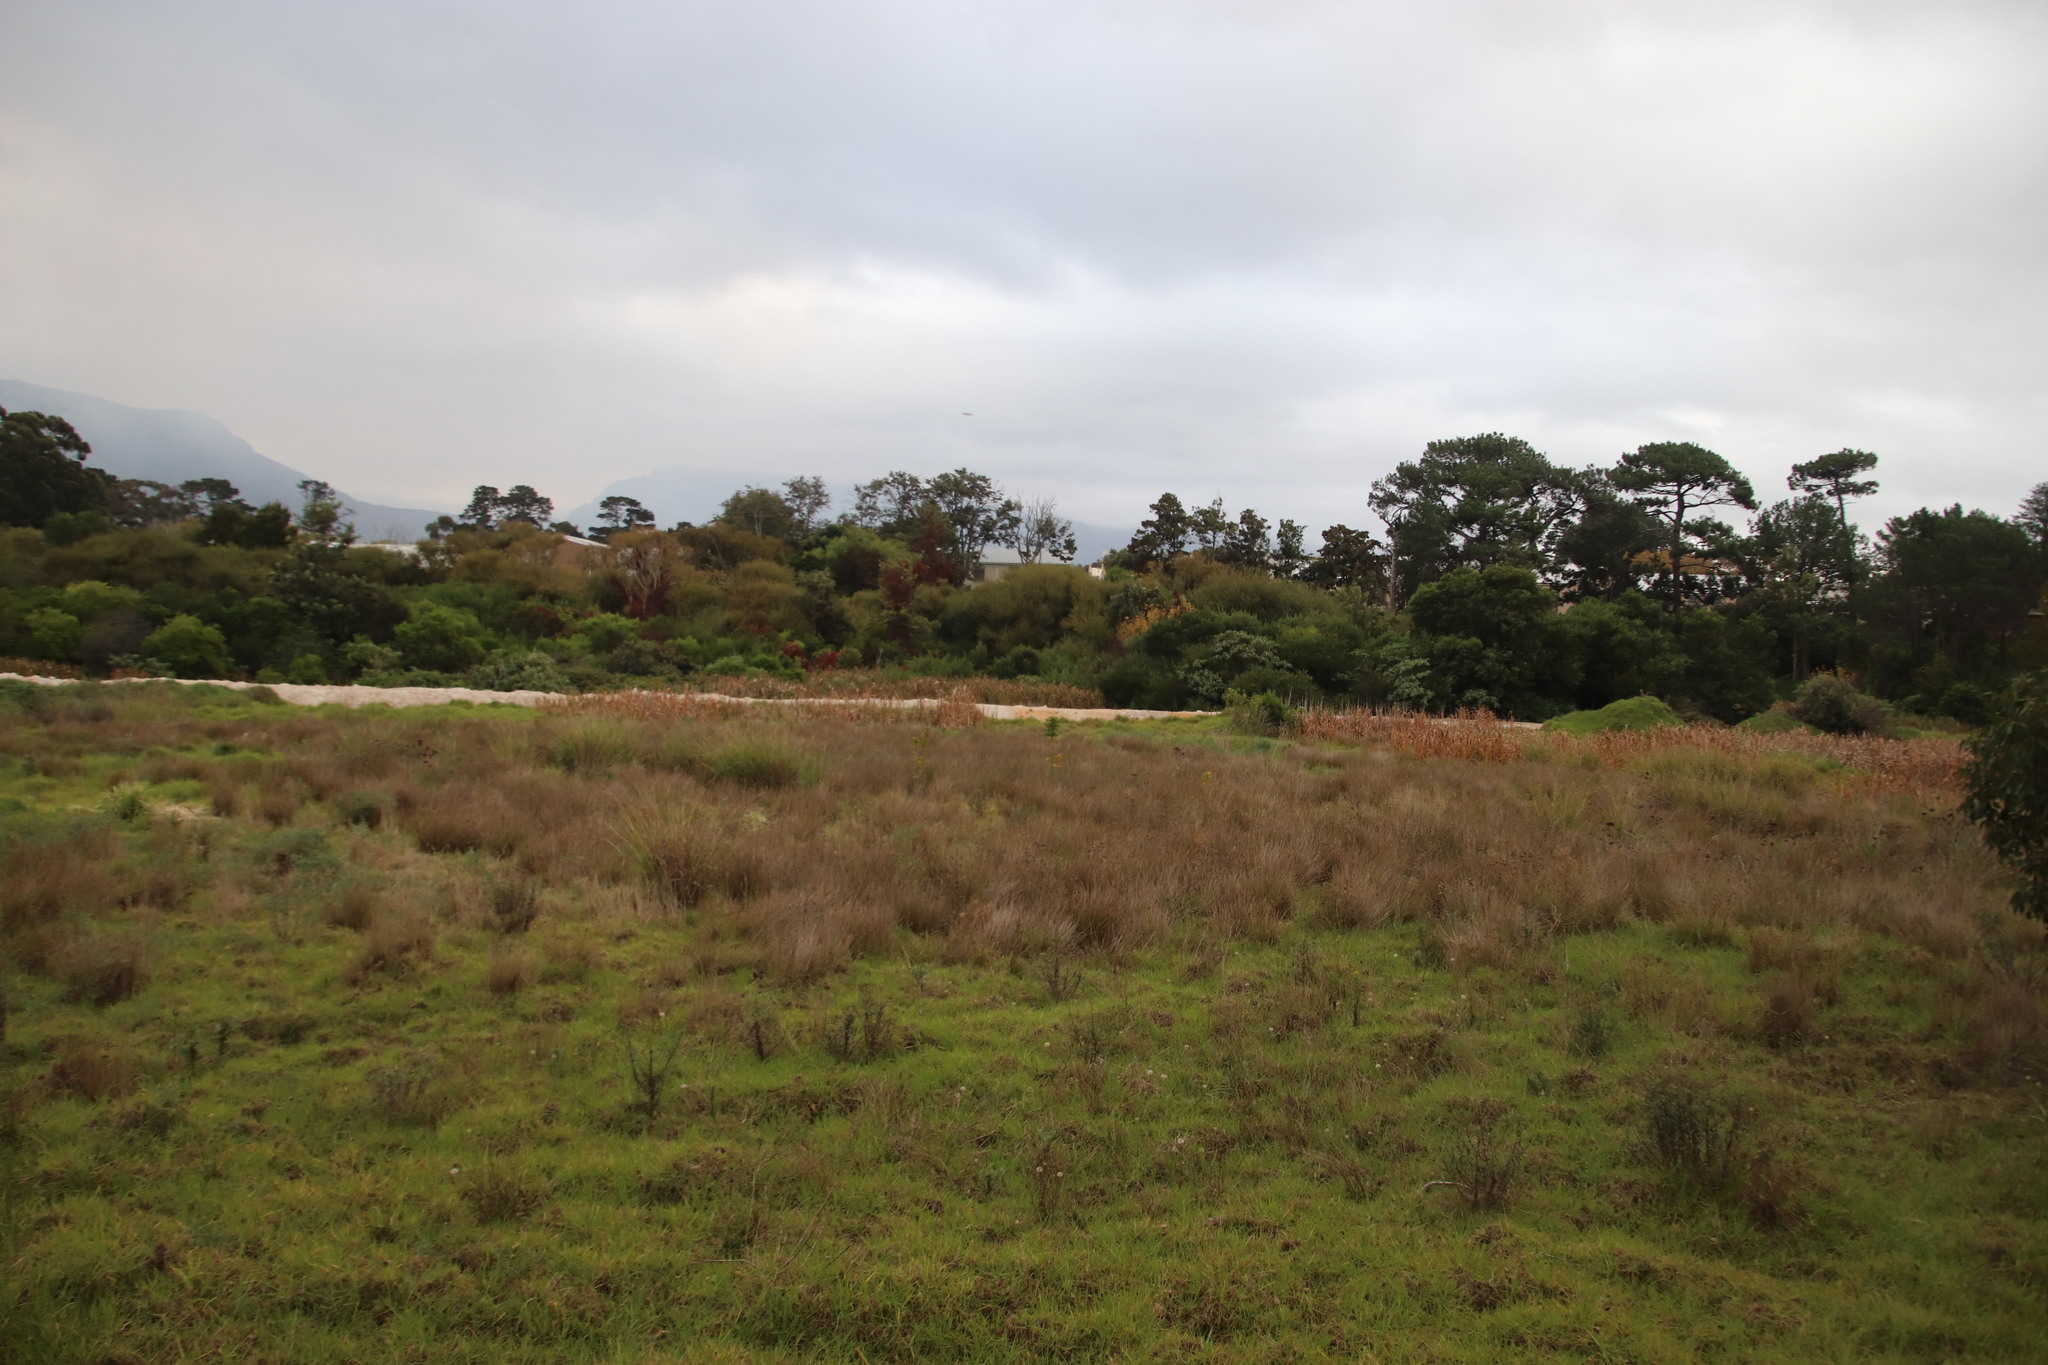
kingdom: Plantae
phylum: Tracheophyta
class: Magnoliopsida
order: Asterales
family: Asteraceae
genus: Solidago
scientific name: Solidago altissima
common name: Late goldenrod
